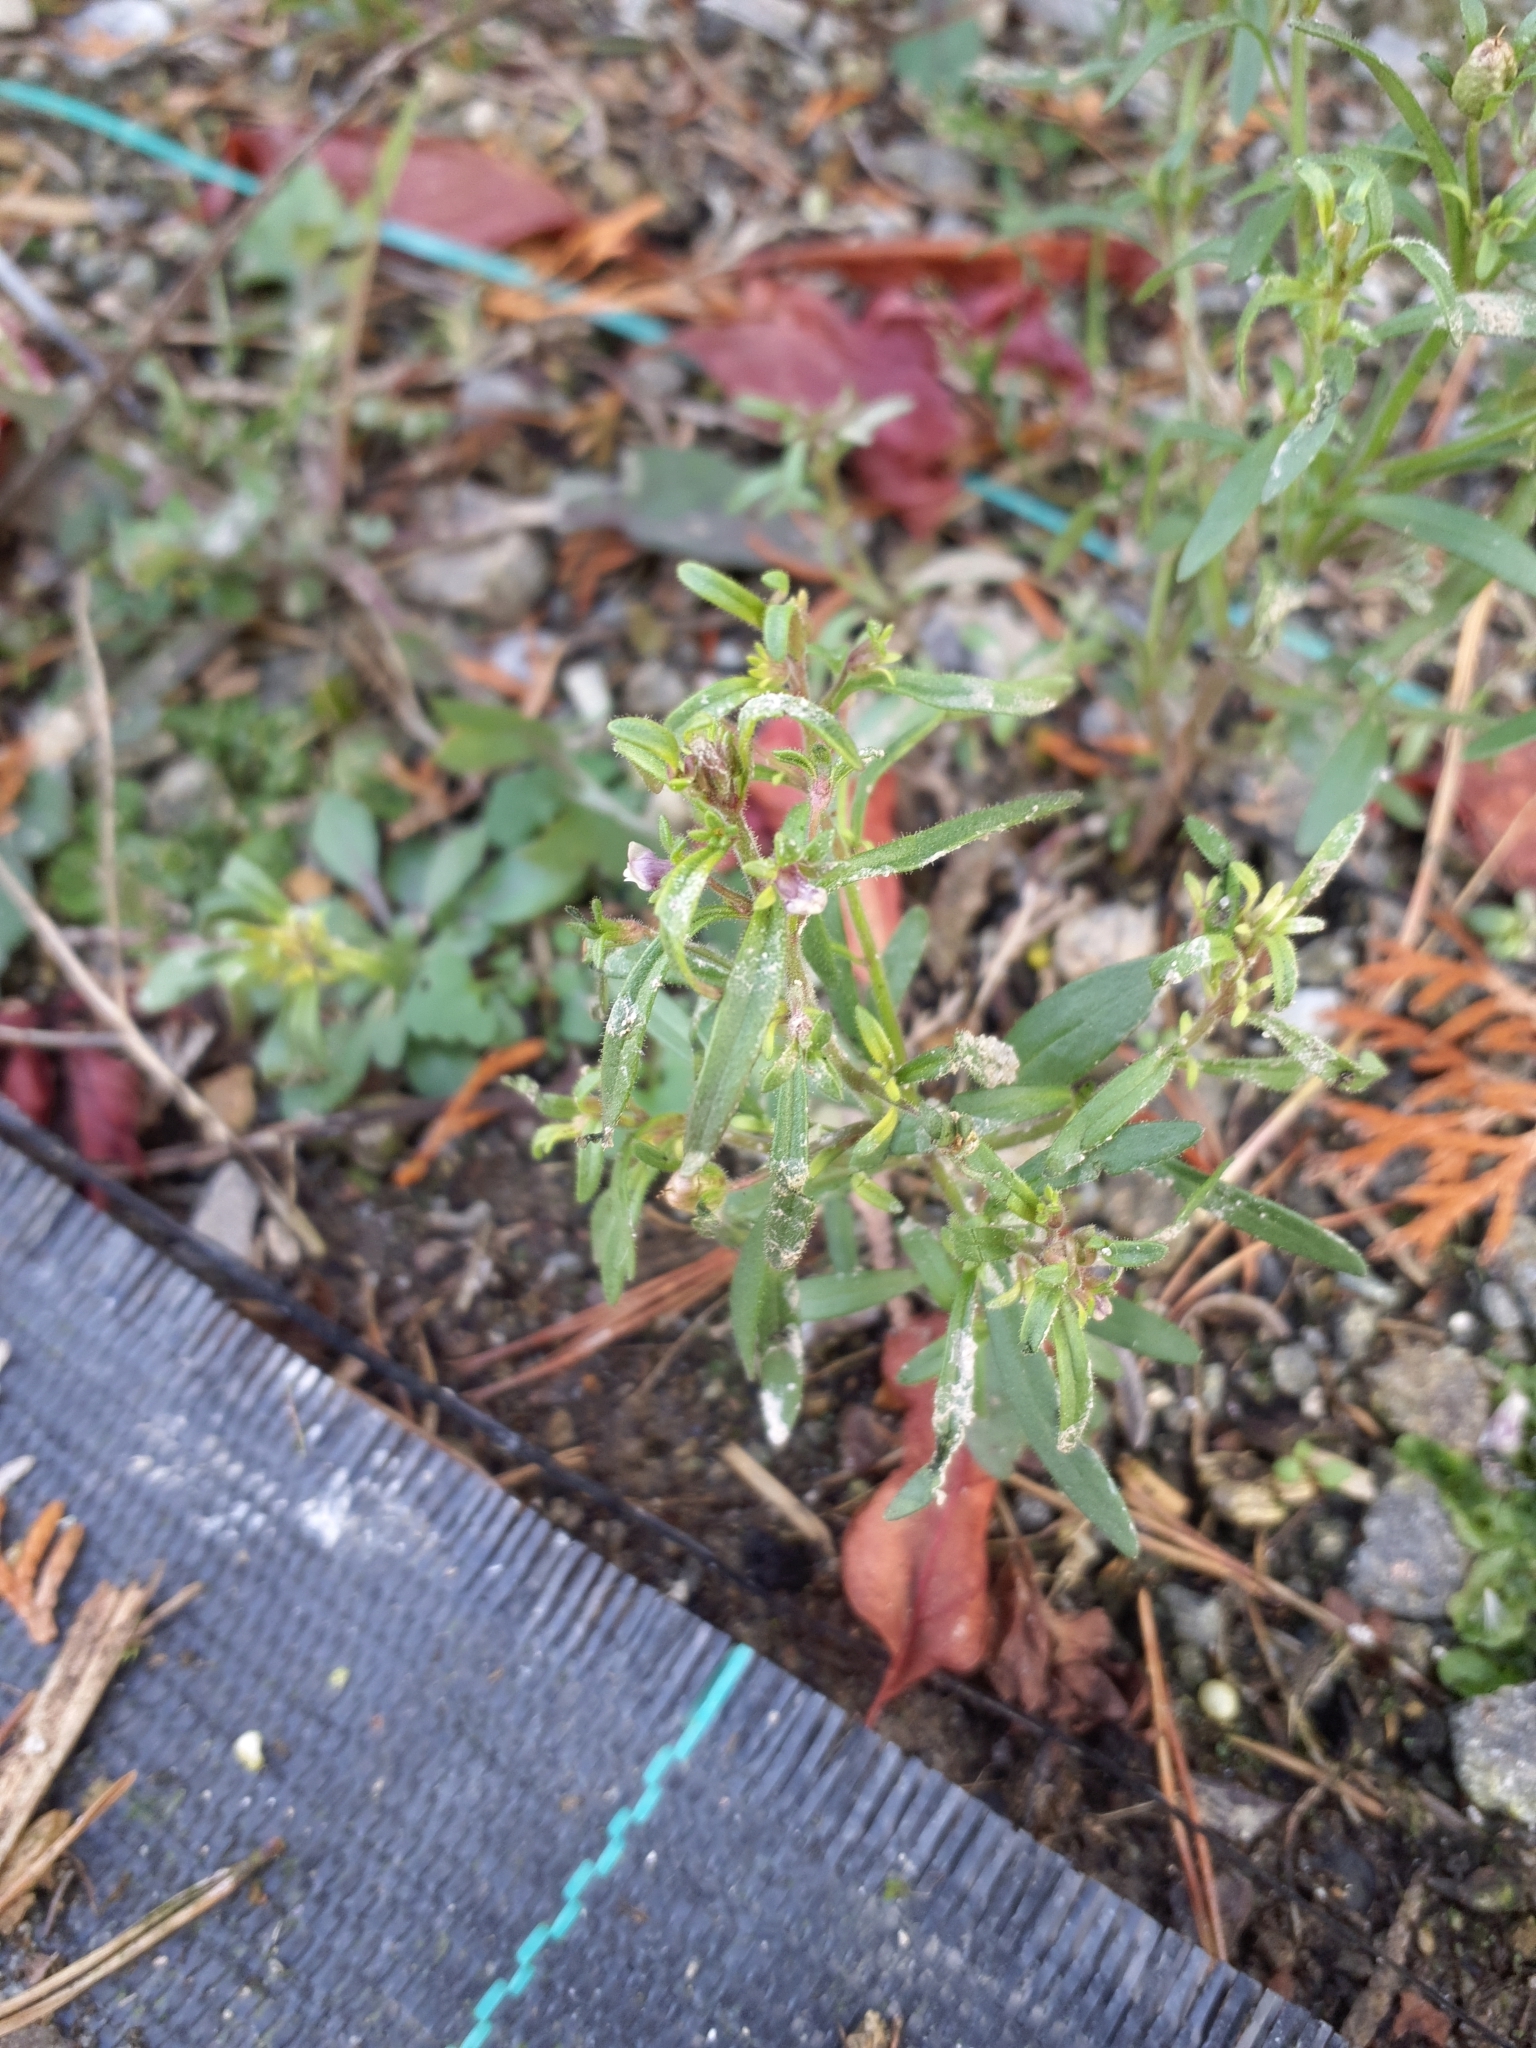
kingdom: Plantae
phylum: Tracheophyta
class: Magnoliopsida
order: Lamiales
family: Plantaginaceae
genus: Chaenorhinum
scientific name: Chaenorhinum minus
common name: Dwarf snapdragon
